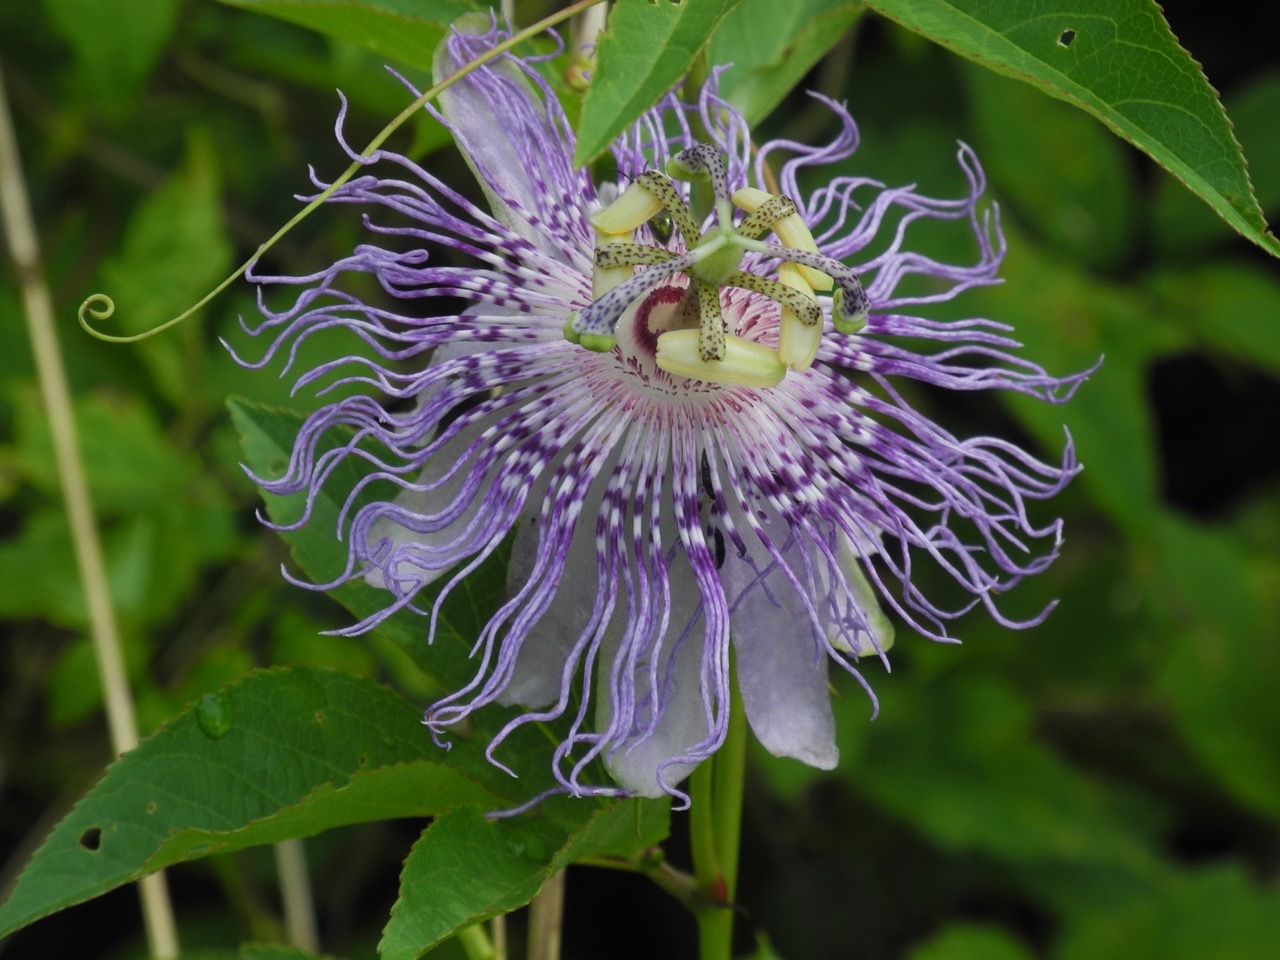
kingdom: Plantae
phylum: Tracheophyta
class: Magnoliopsida
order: Malpighiales
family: Passifloraceae
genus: Passiflora
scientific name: Passiflora incarnata
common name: Apricot-vine
